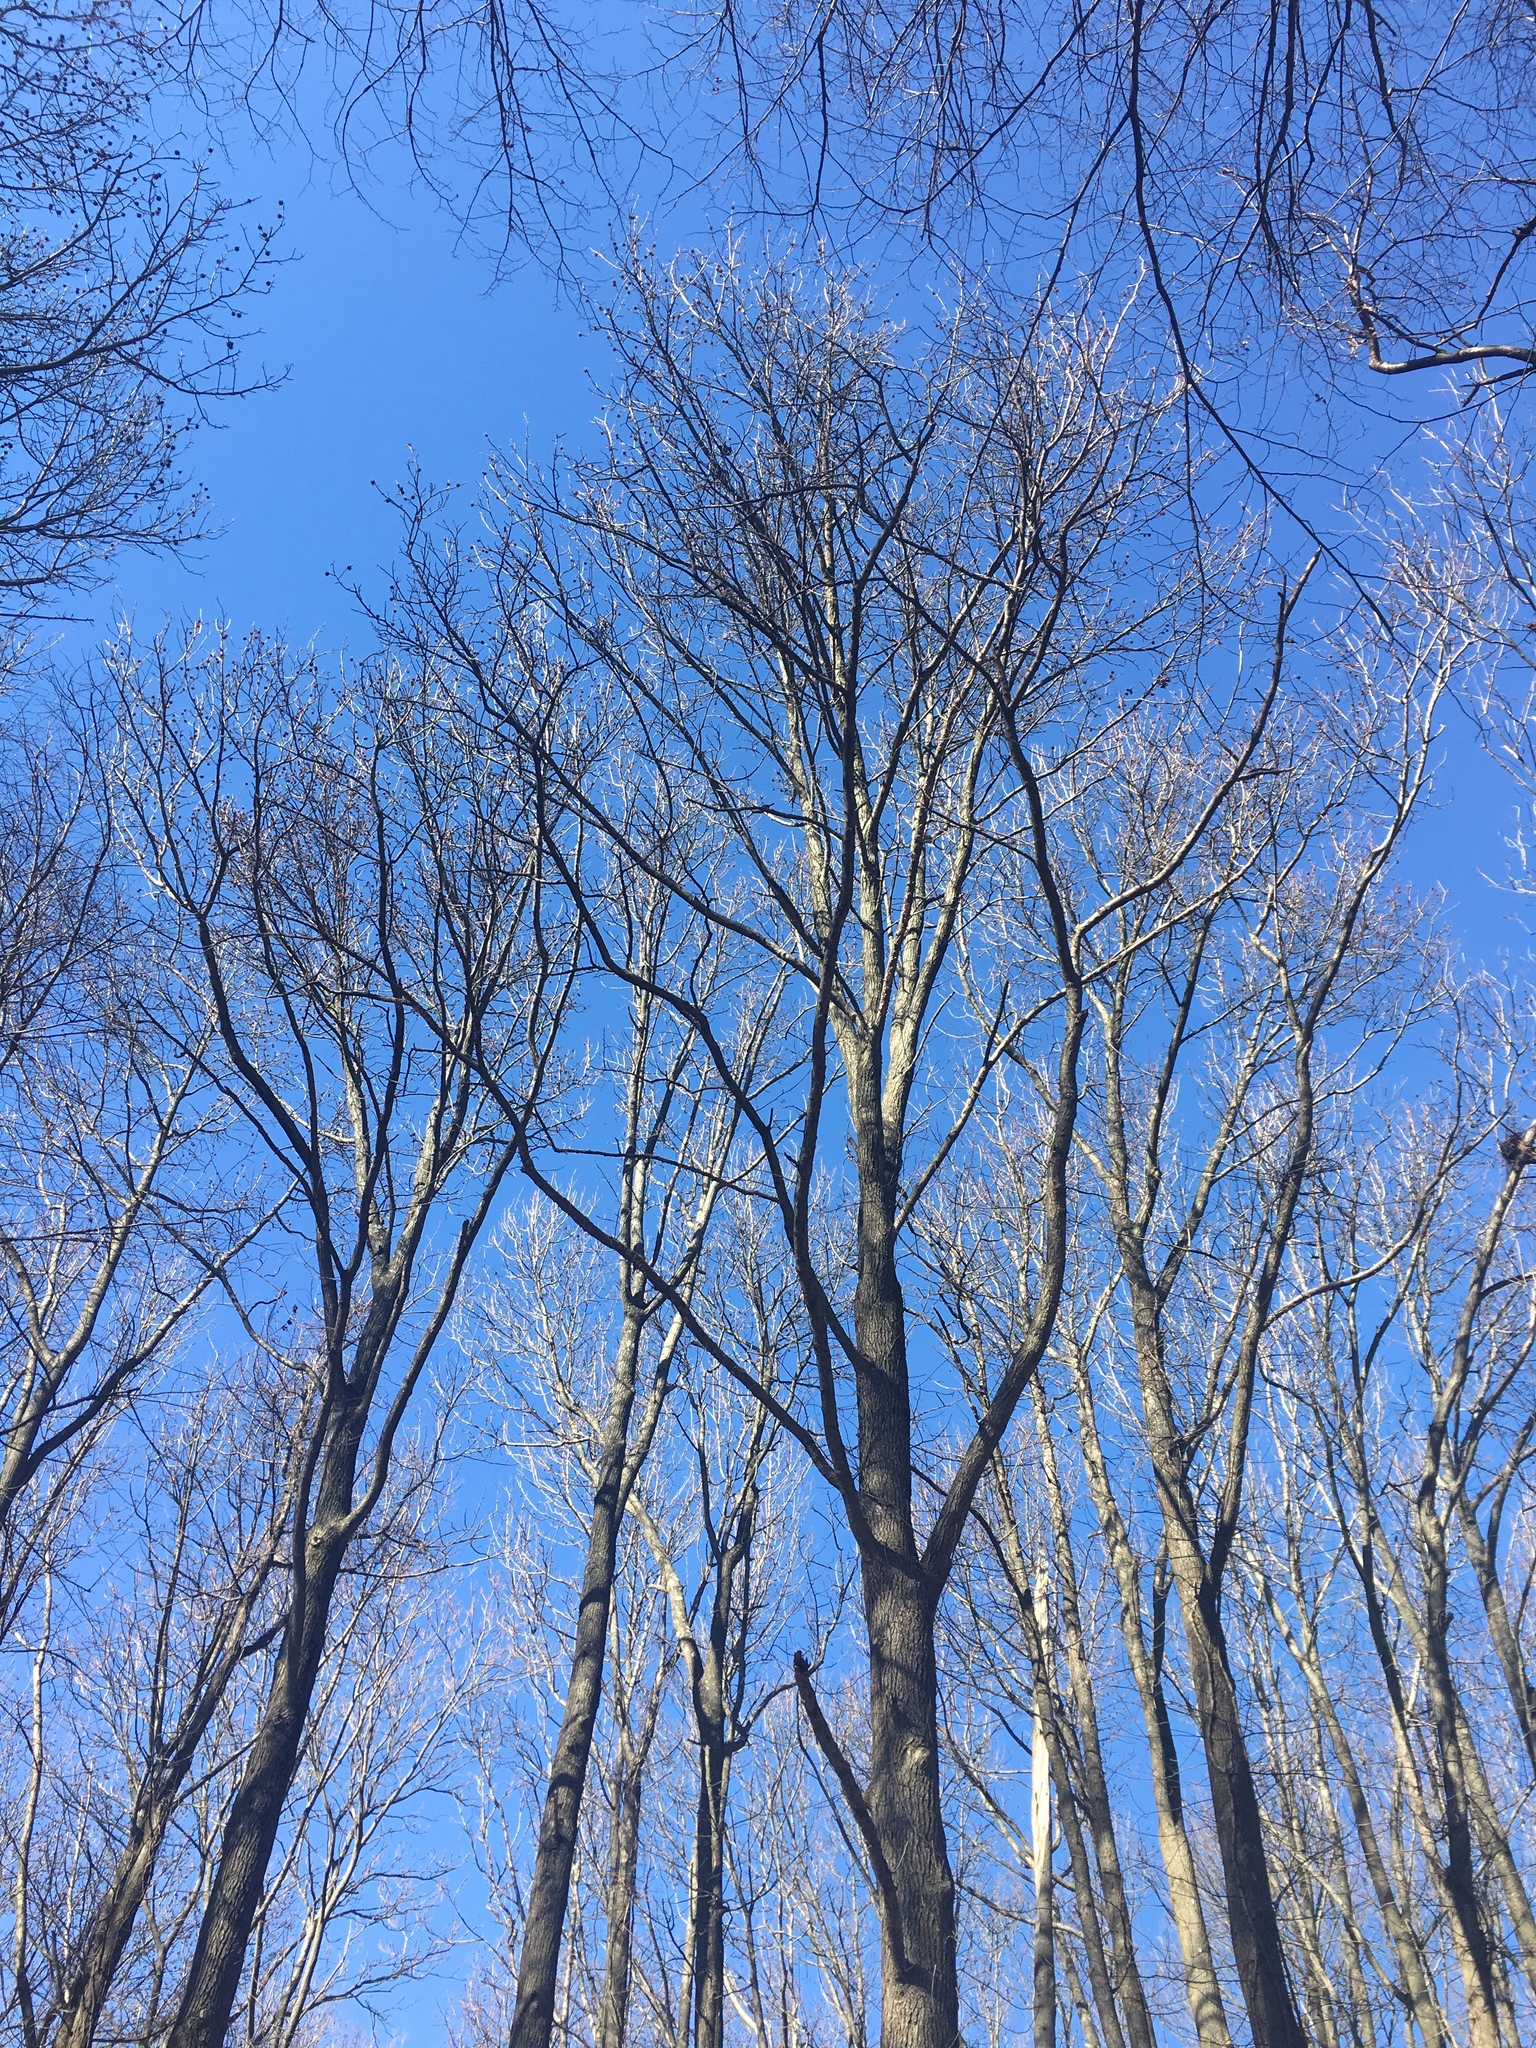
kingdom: Plantae
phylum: Tracheophyta
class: Magnoliopsida
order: Saxifragales
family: Altingiaceae
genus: Liquidambar
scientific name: Liquidambar styraciflua
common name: Sweet gum
